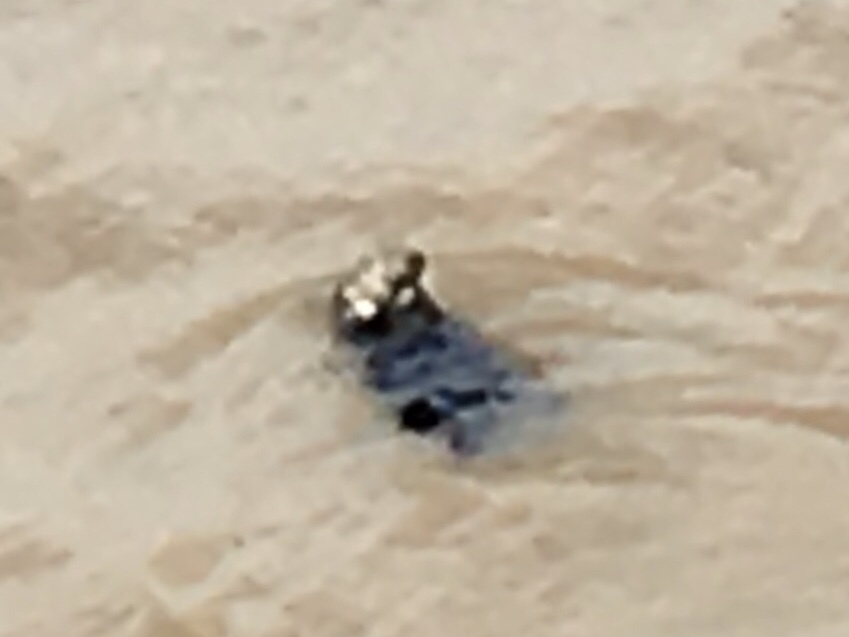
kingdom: Animalia
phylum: Chordata
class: Mammalia
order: Carnivora
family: Mustelidae
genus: Enhydra
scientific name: Enhydra lutris
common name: Sea otter
